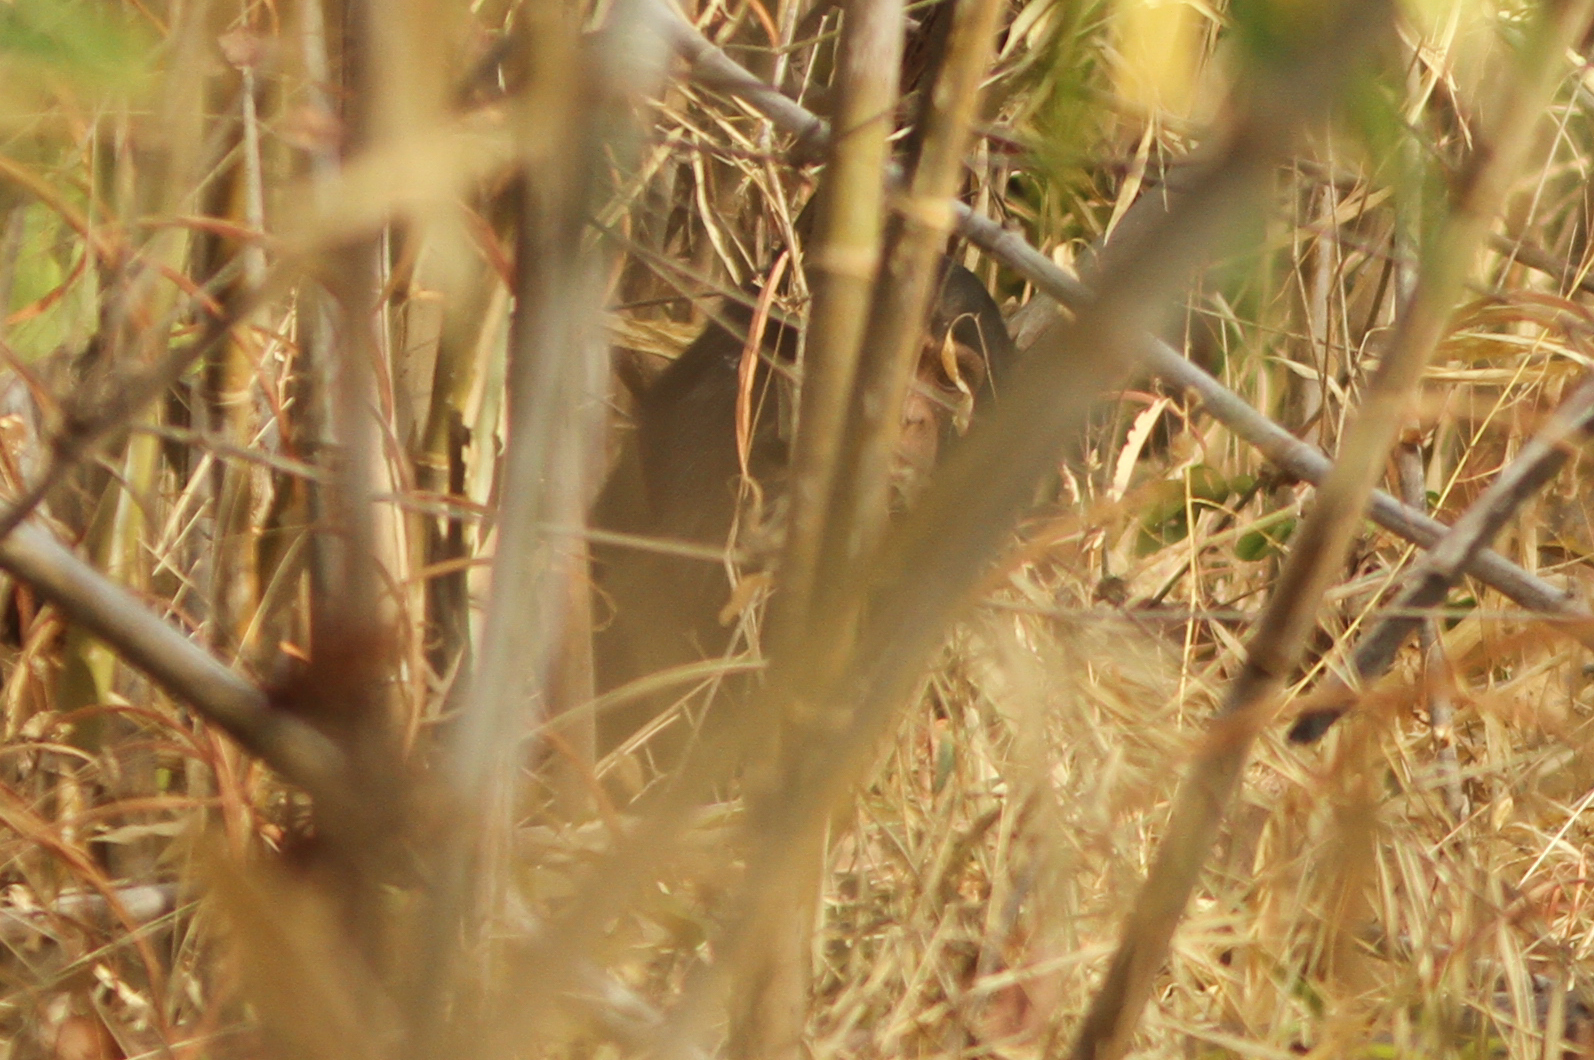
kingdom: Animalia
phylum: Chordata
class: Mammalia
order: Primates
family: Hominidae
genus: Pan
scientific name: Pan troglodytes
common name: Chimpanzee
